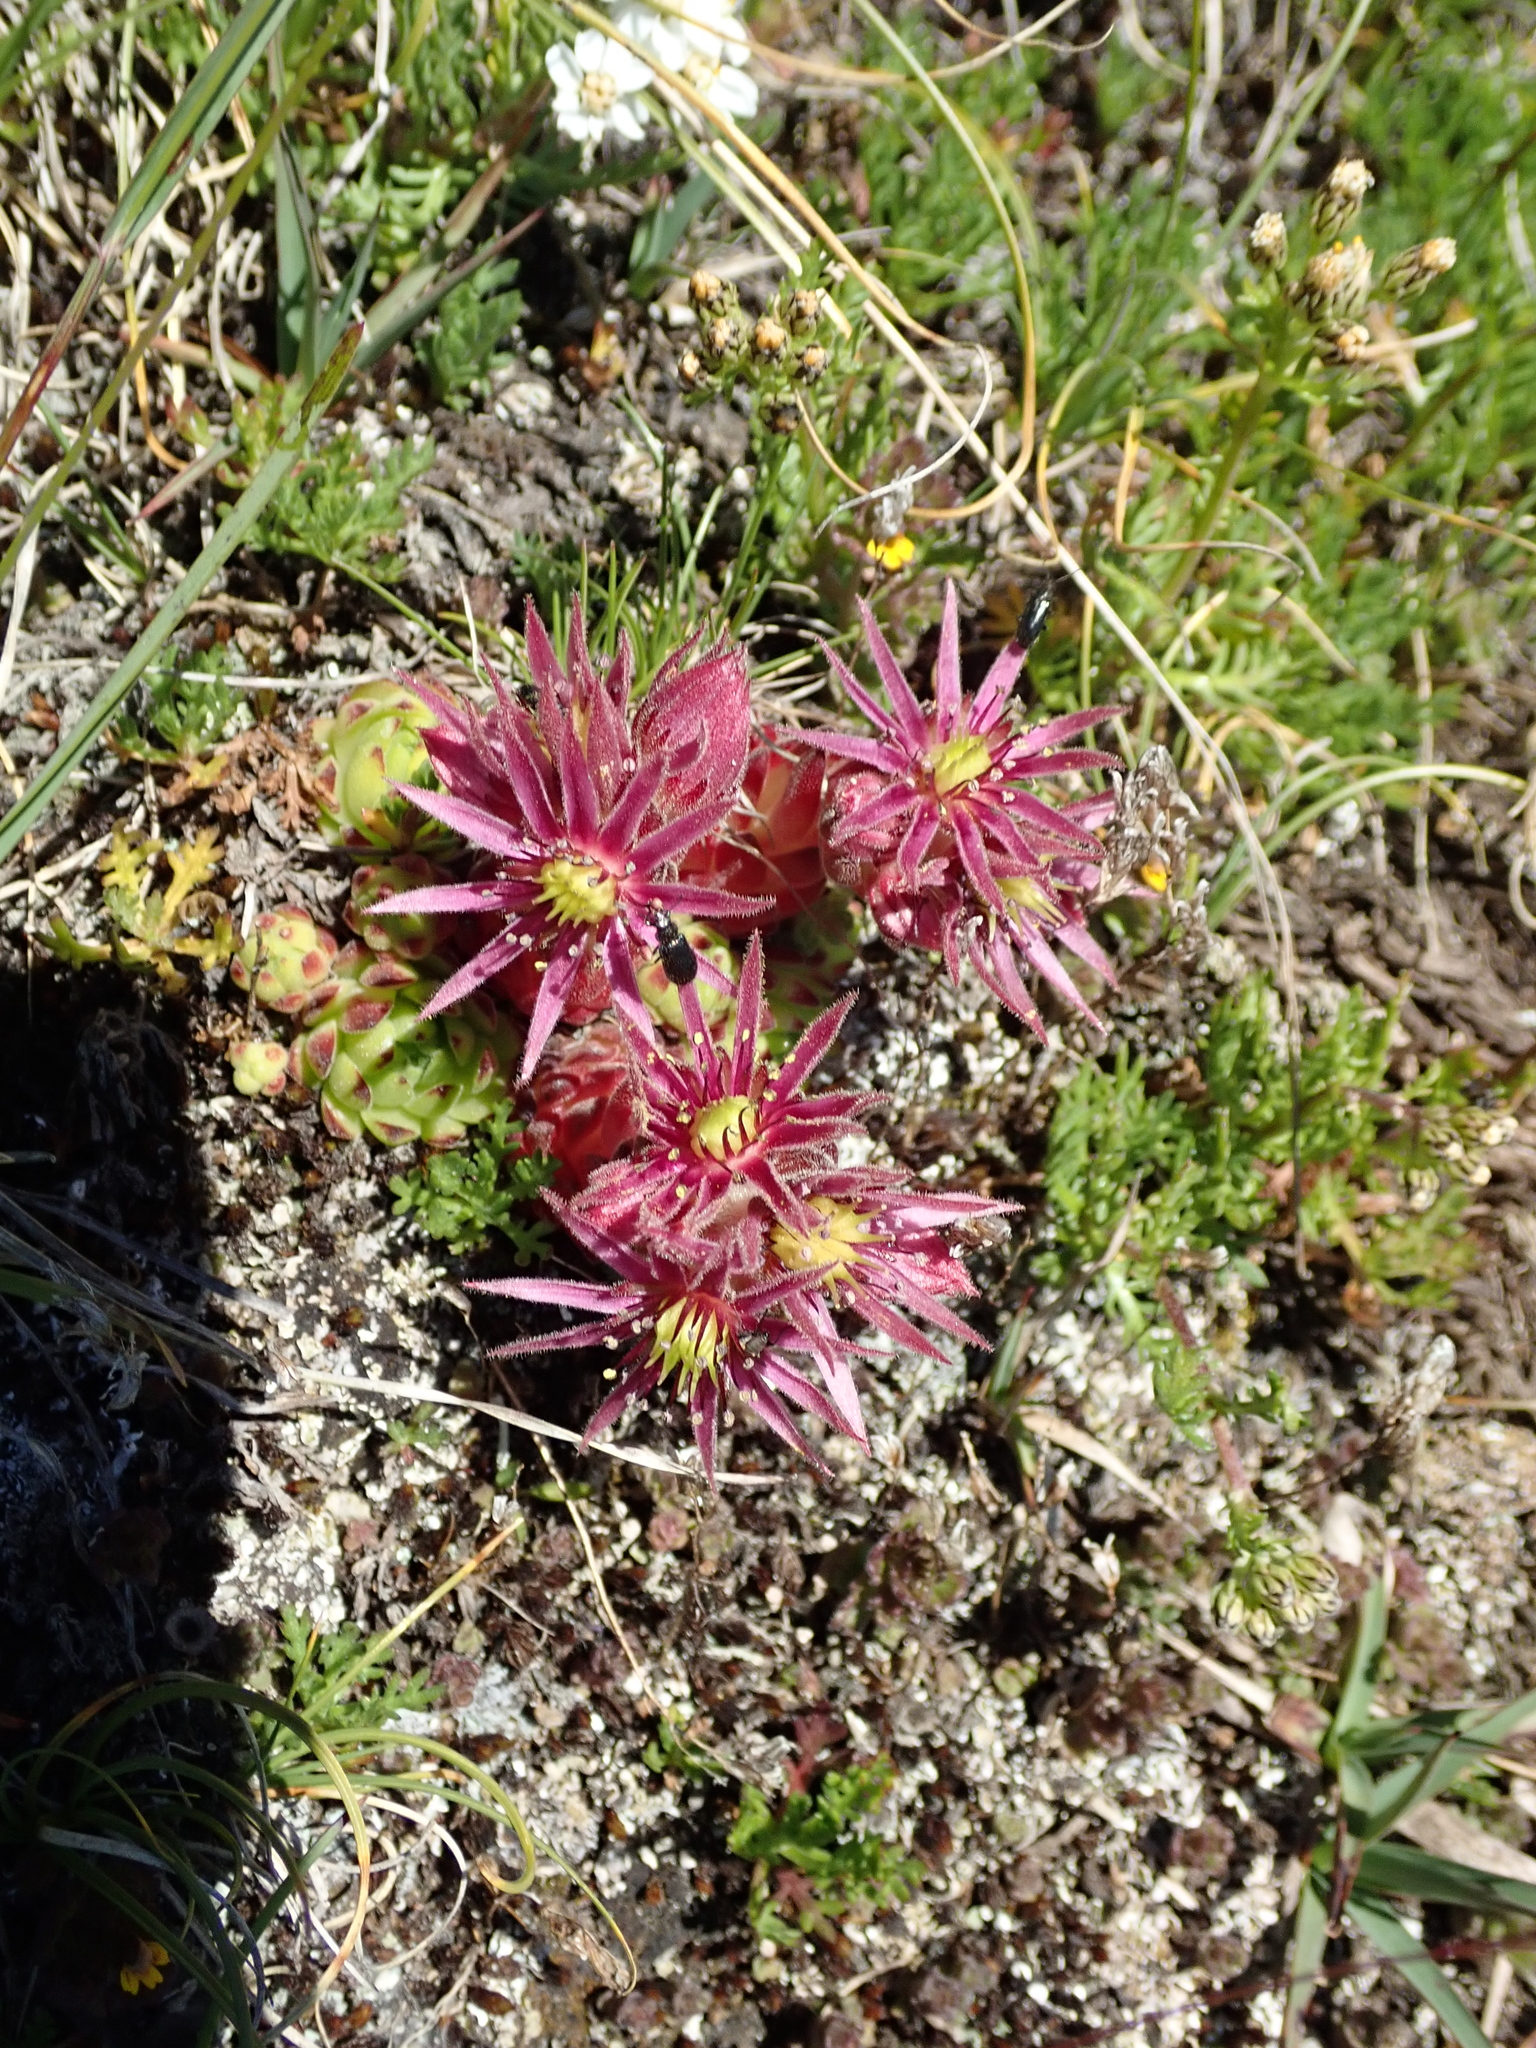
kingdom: Plantae
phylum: Tracheophyta
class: Magnoliopsida
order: Saxifragales
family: Crassulaceae
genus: Sempervivum
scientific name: Sempervivum montanum
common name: Mountain house-leek
